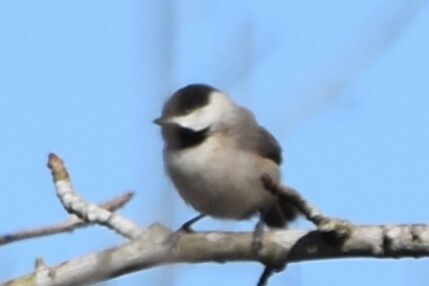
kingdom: Animalia
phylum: Chordata
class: Aves
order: Passeriformes
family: Paridae
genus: Poecile
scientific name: Poecile carolinensis
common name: Carolina chickadee
